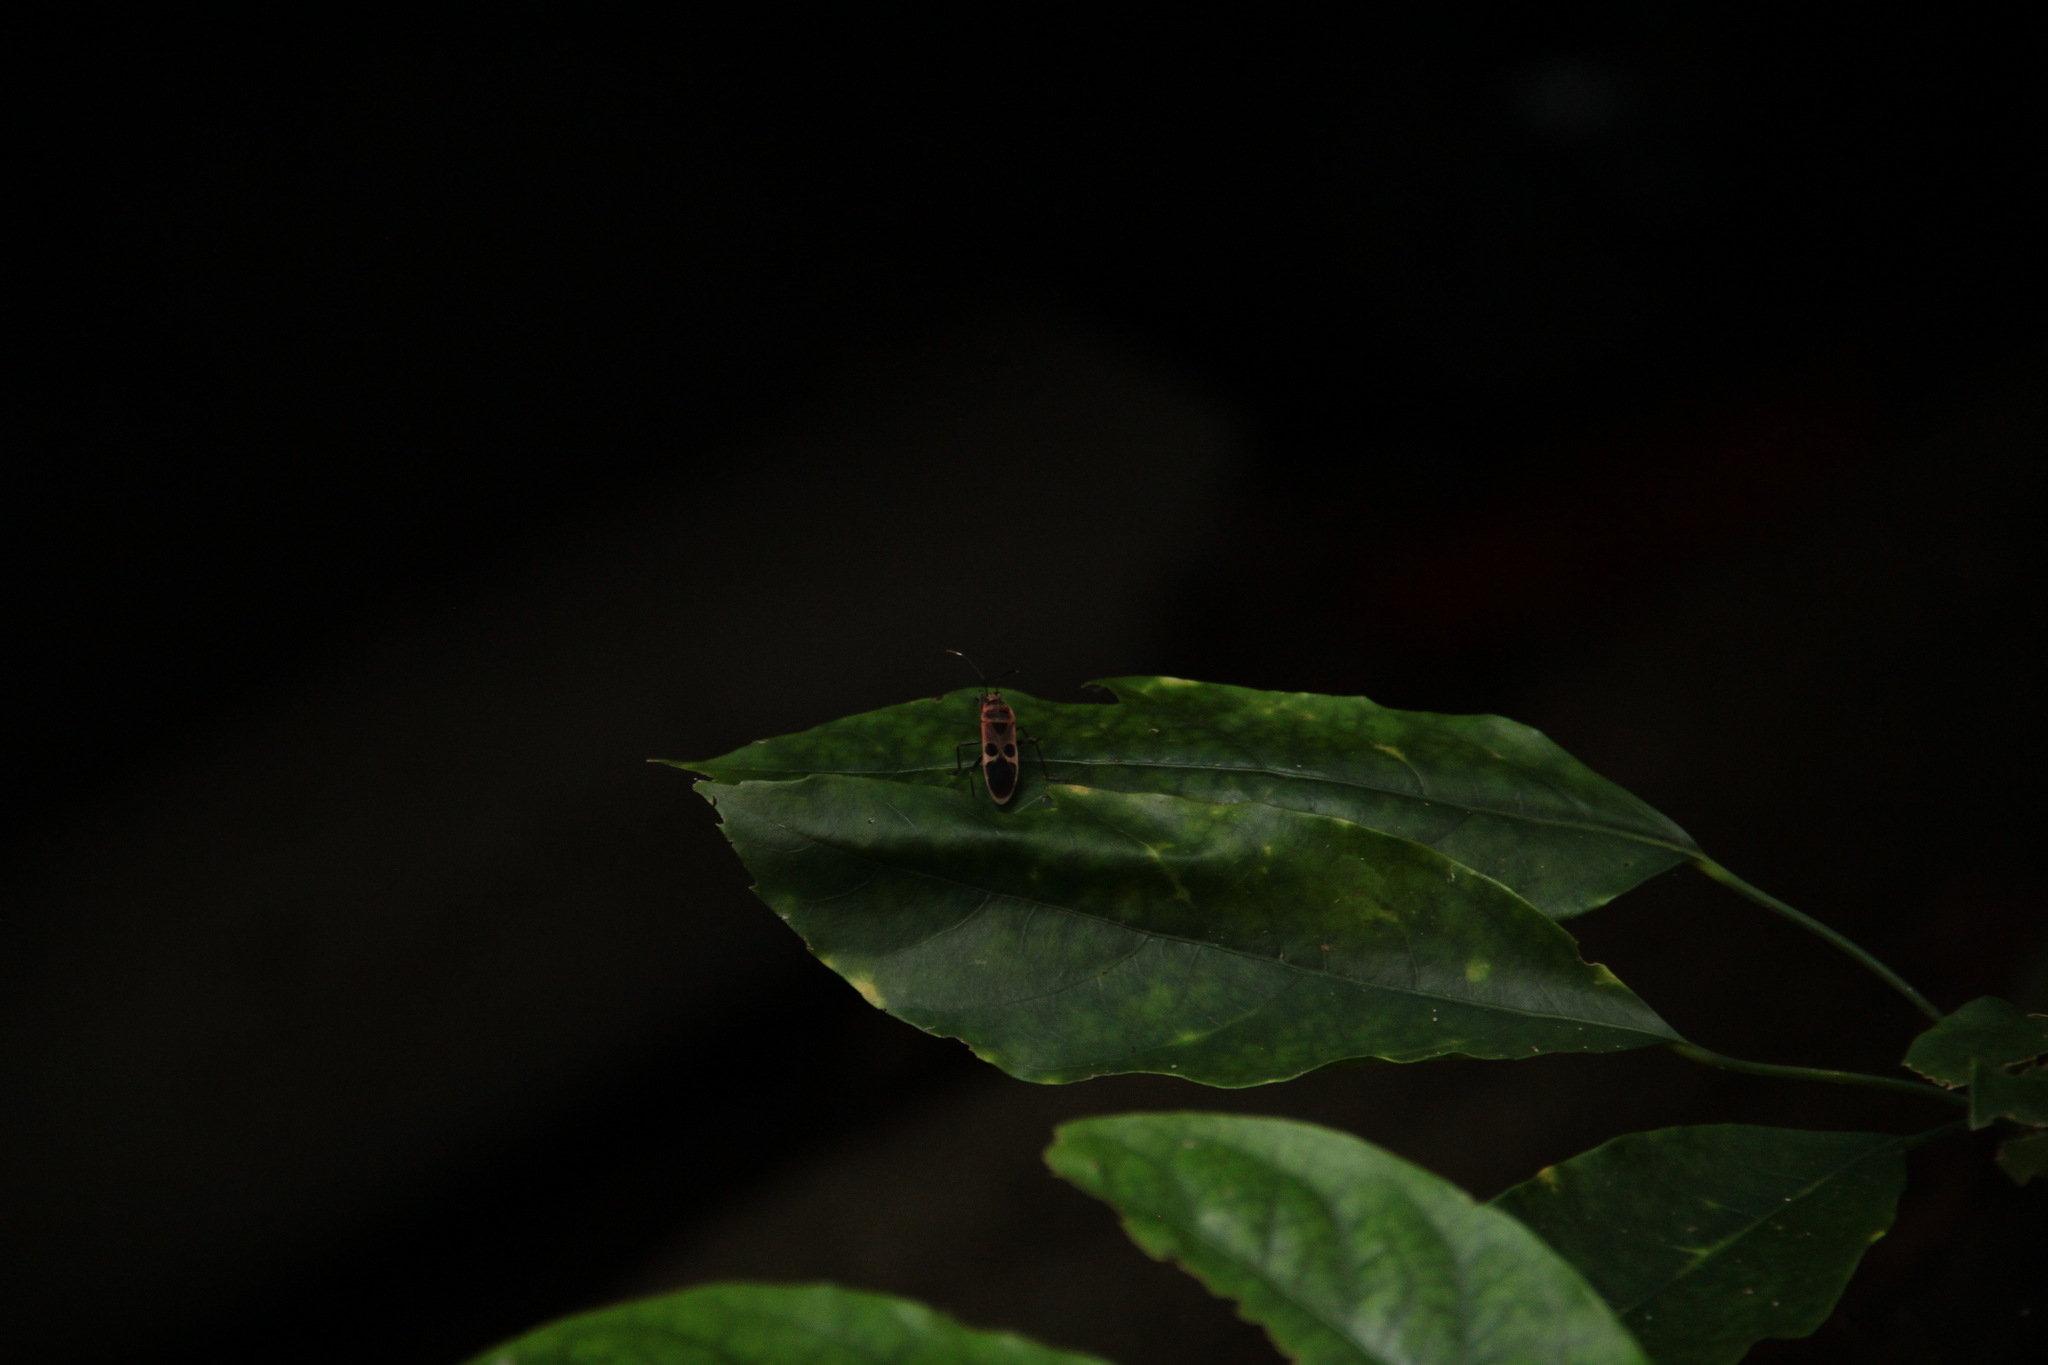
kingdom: Animalia
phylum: Arthropoda
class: Insecta
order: Hemiptera
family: Largidae
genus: Physopelta
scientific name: Physopelta gutta
